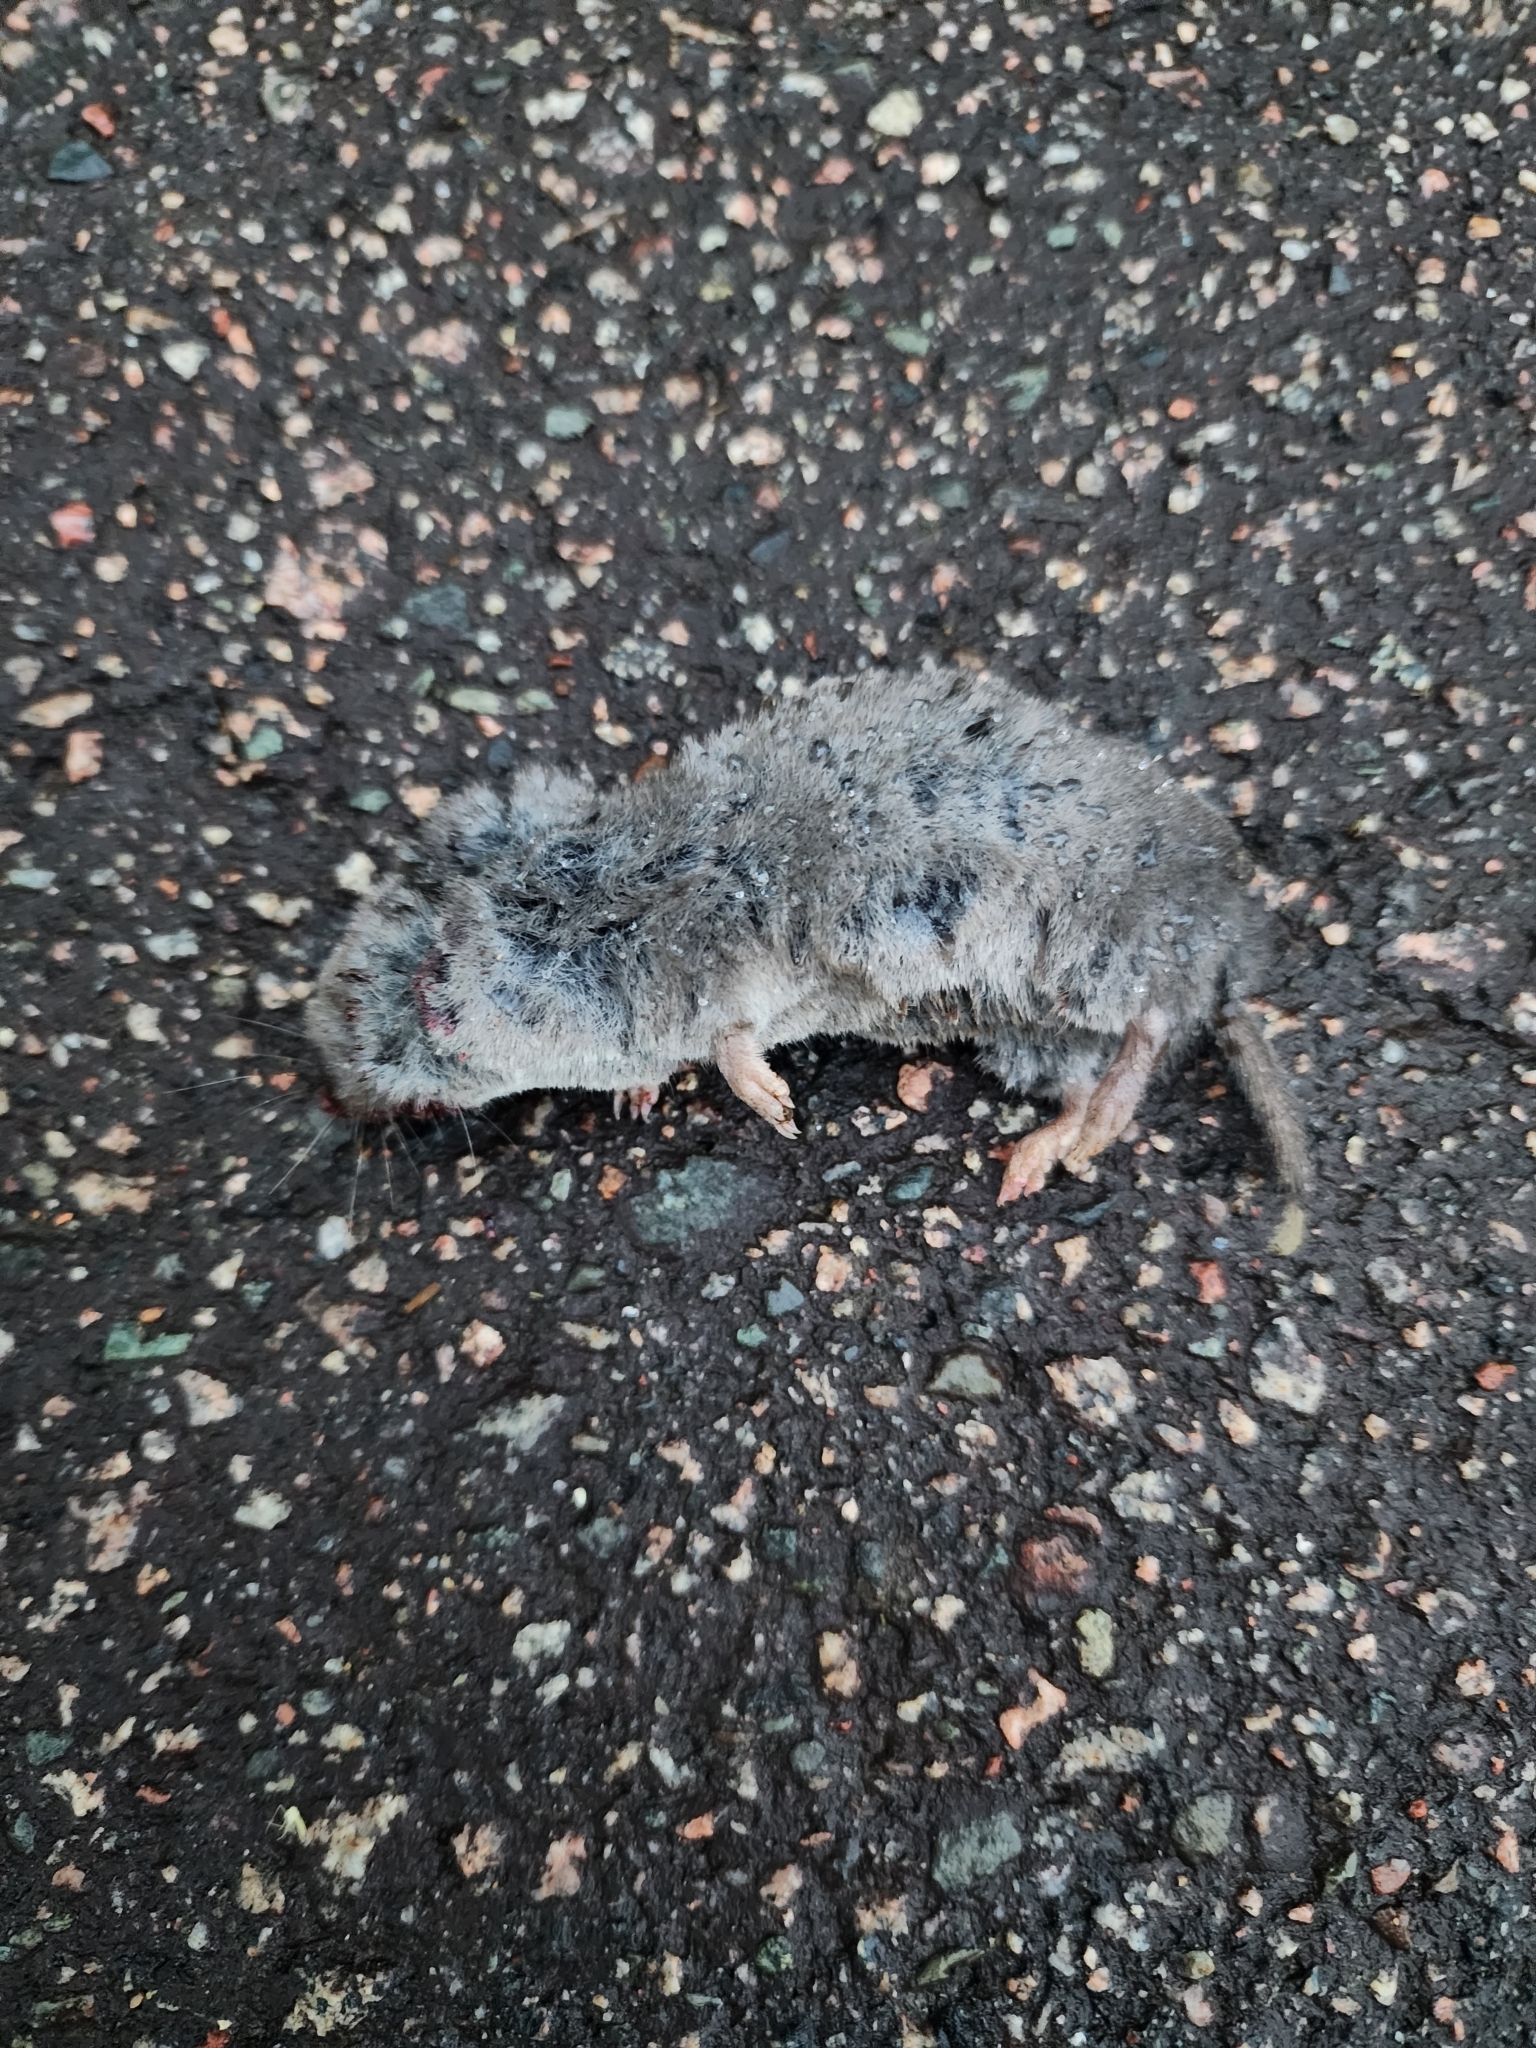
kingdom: Animalia
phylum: Chordata
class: Mammalia
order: Soricomorpha
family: Soricidae
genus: Blarina
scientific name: Blarina brevicauda
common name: Northern short-tailed shrew
